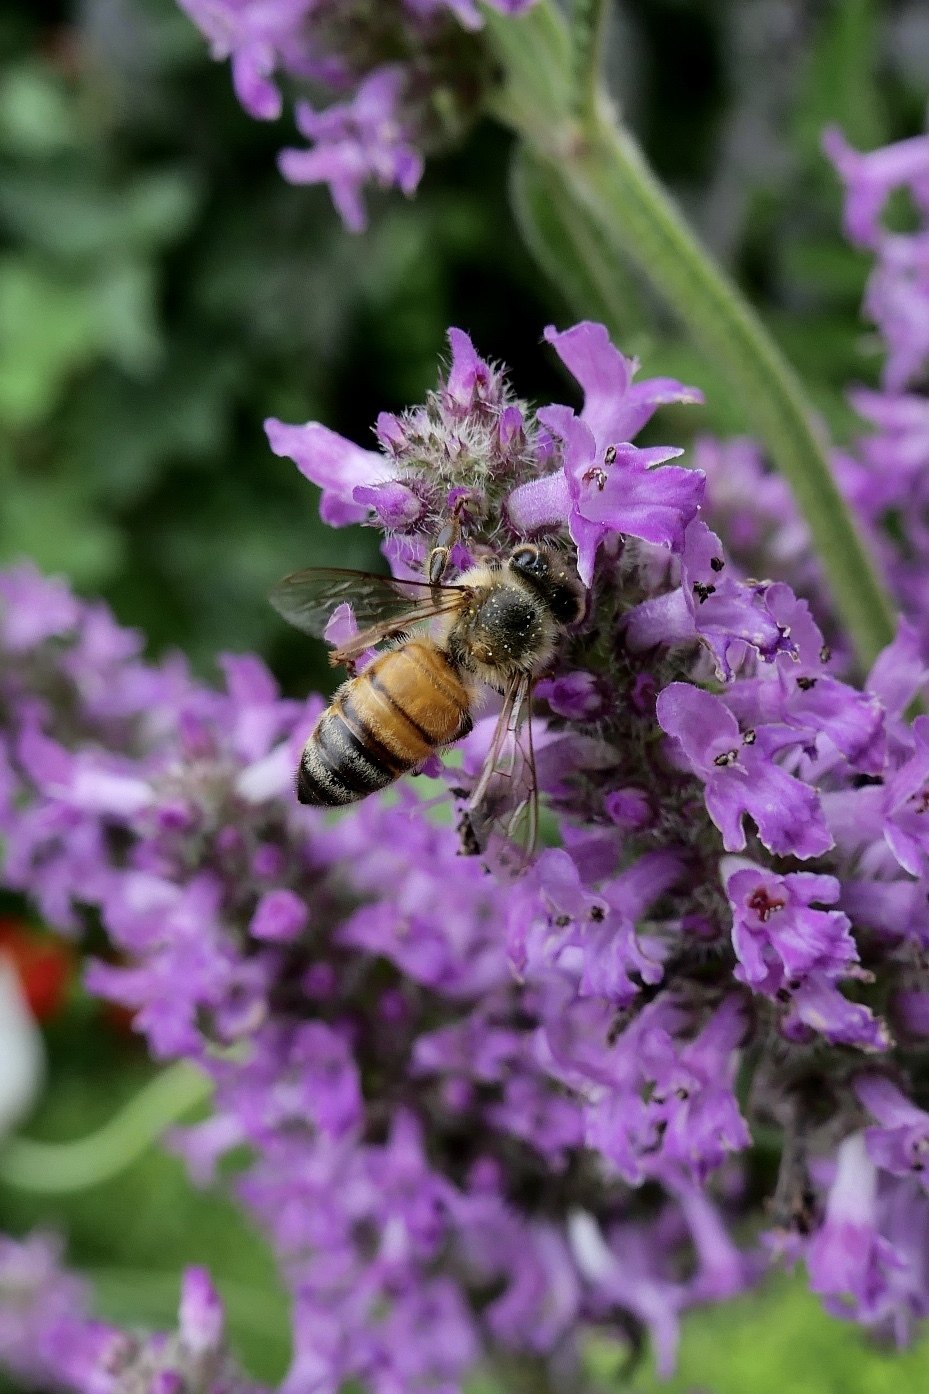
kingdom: Animalia
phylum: Arthropoda
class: Insecta
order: Hymenoptera
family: Apidae
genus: Apis
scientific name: Apis mellifera
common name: Honey bee
